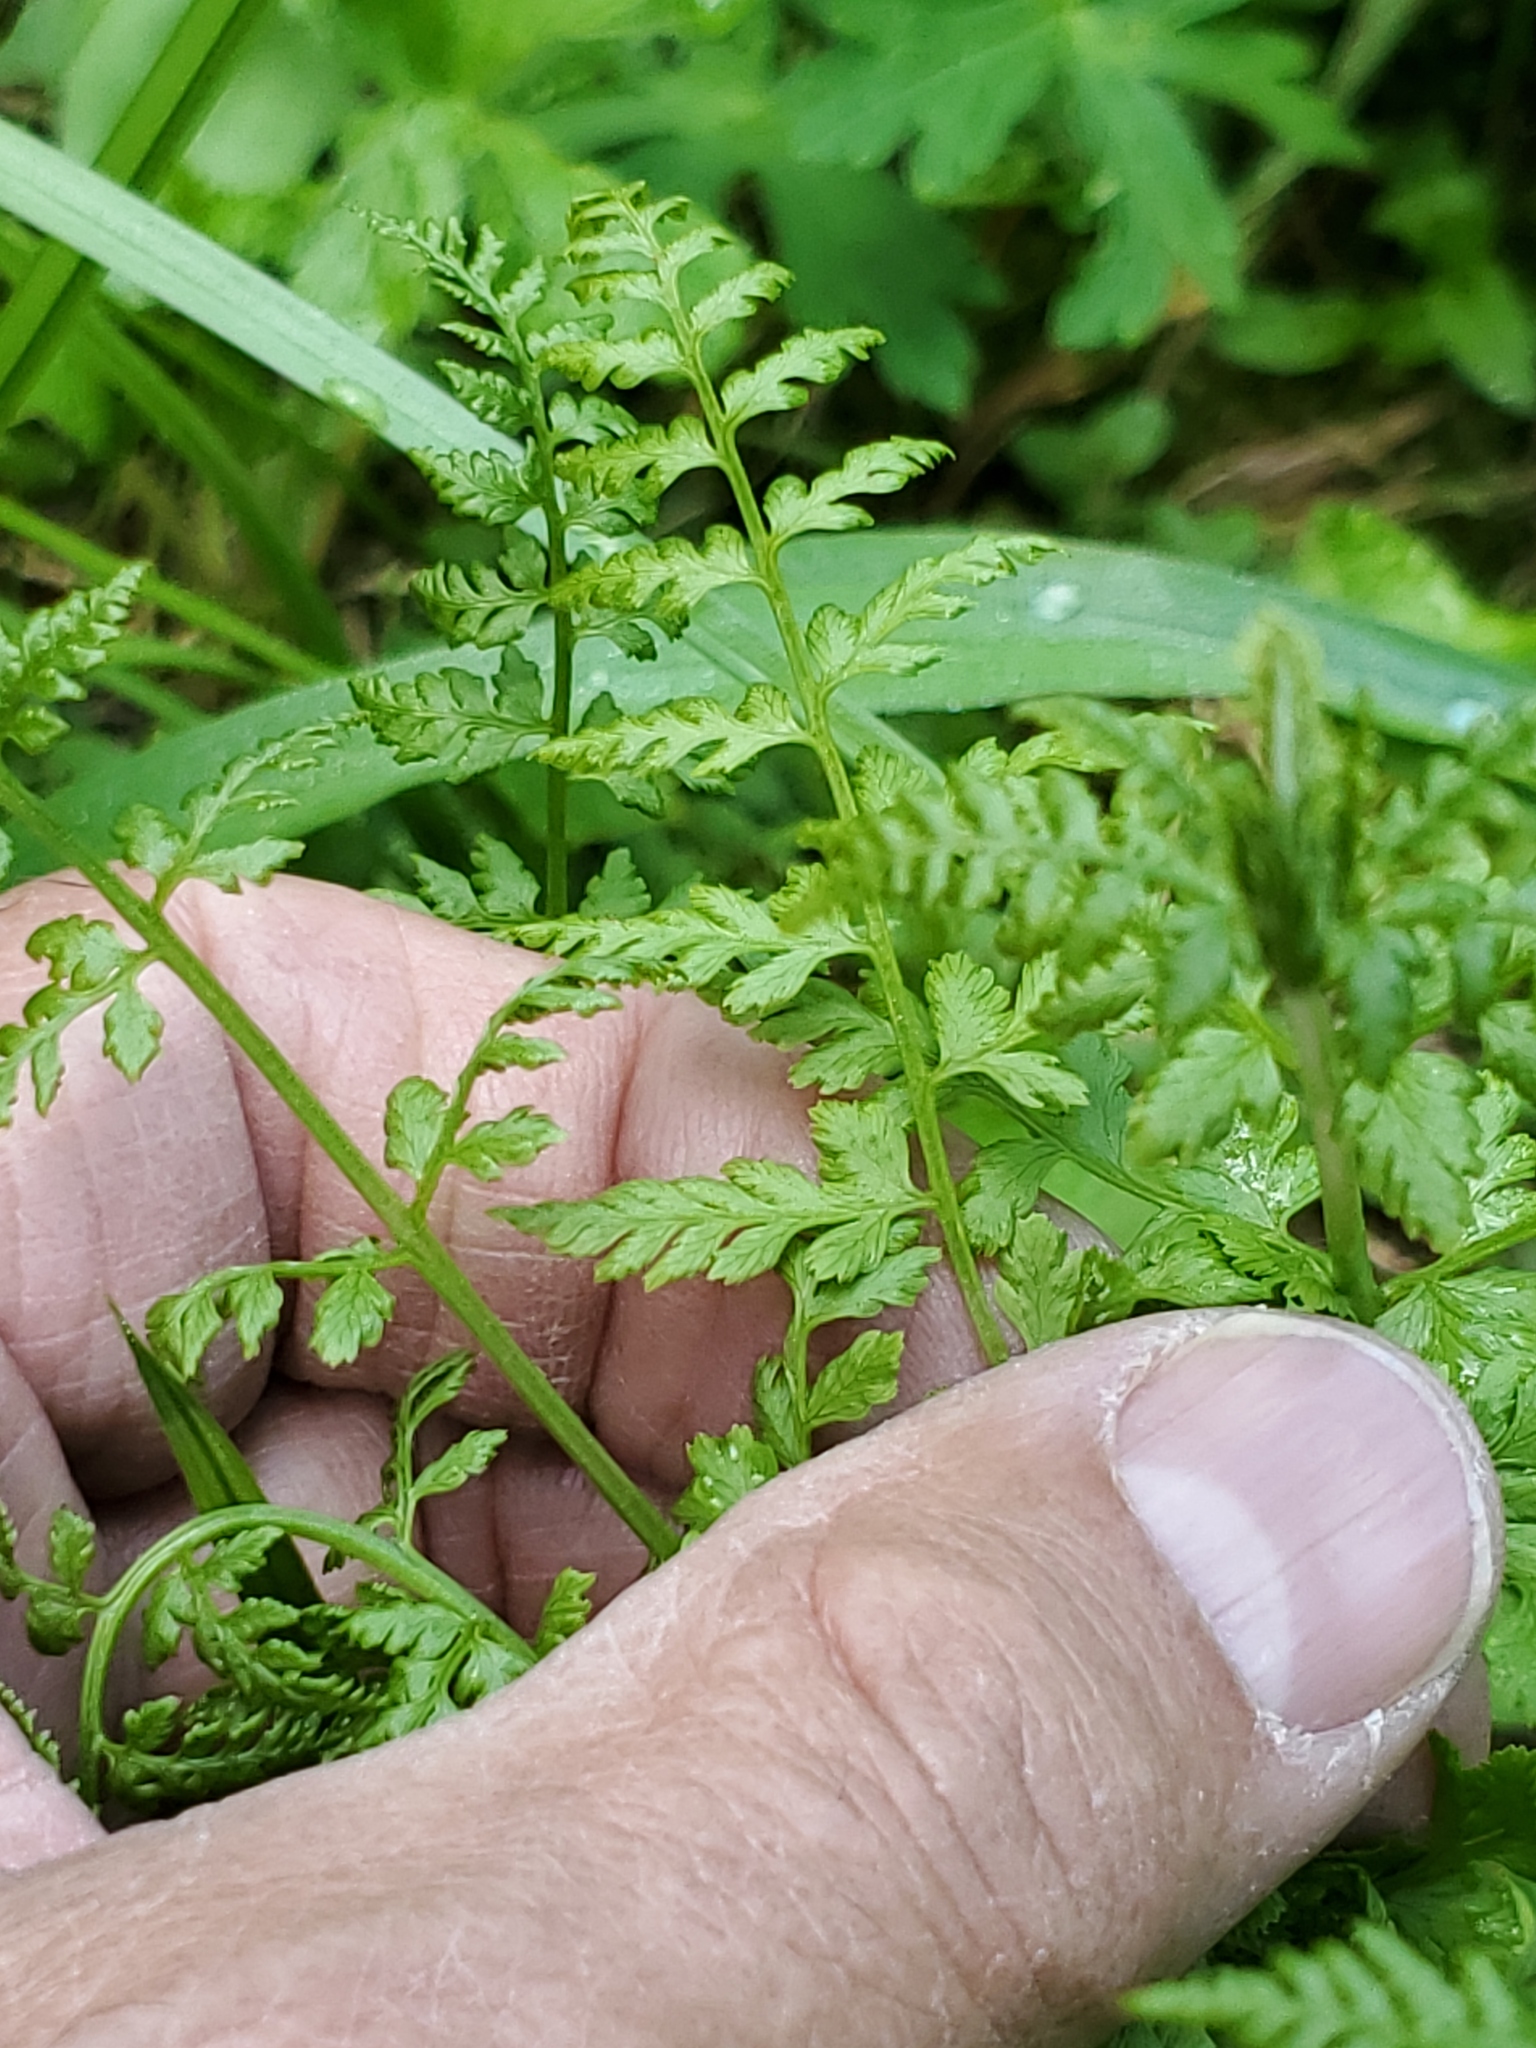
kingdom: Plantae
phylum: Tracheophyta
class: Polypodiopsida
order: Polypodiales
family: Cystopteridaceae
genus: Cystopteris
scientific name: Cystopteris fragilis
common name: Brittle bladder fern
